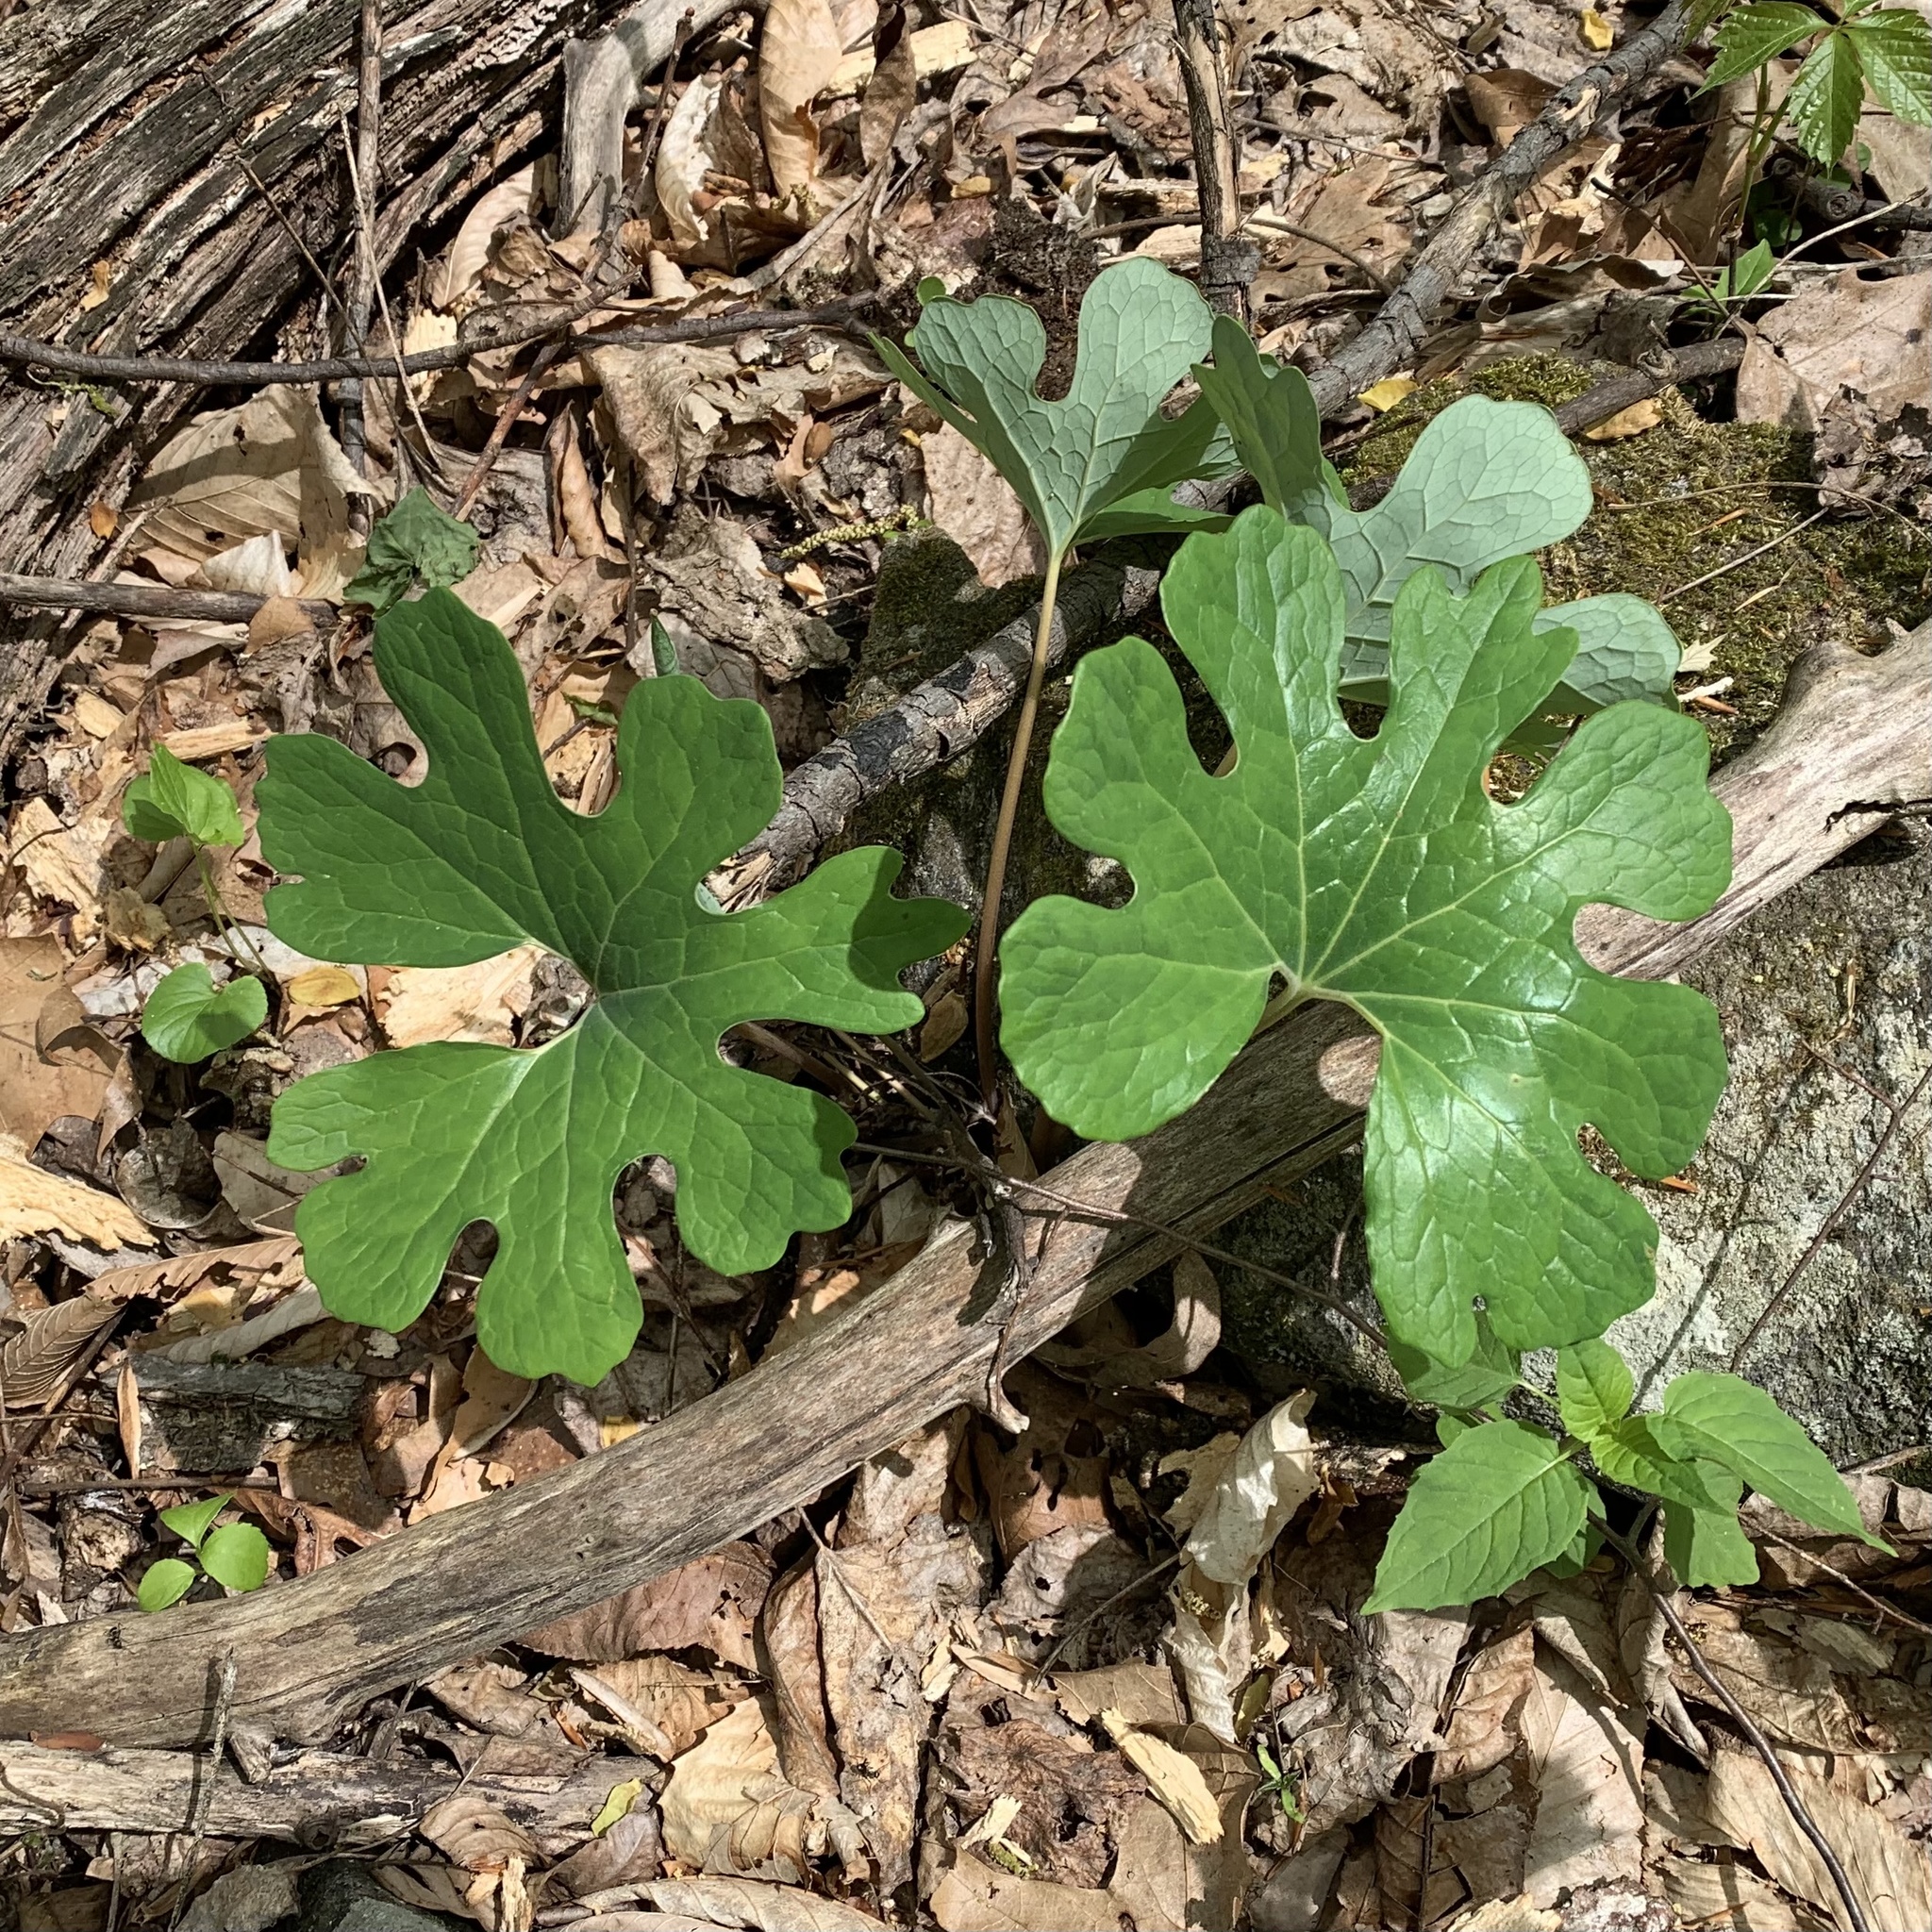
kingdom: Plantae
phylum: Tracheophyta
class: Magnoliopsida
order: Ranunculales
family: Papaveraceae
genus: Sanguinaria
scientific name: Sanguinaria canadensis
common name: Bloodroot
